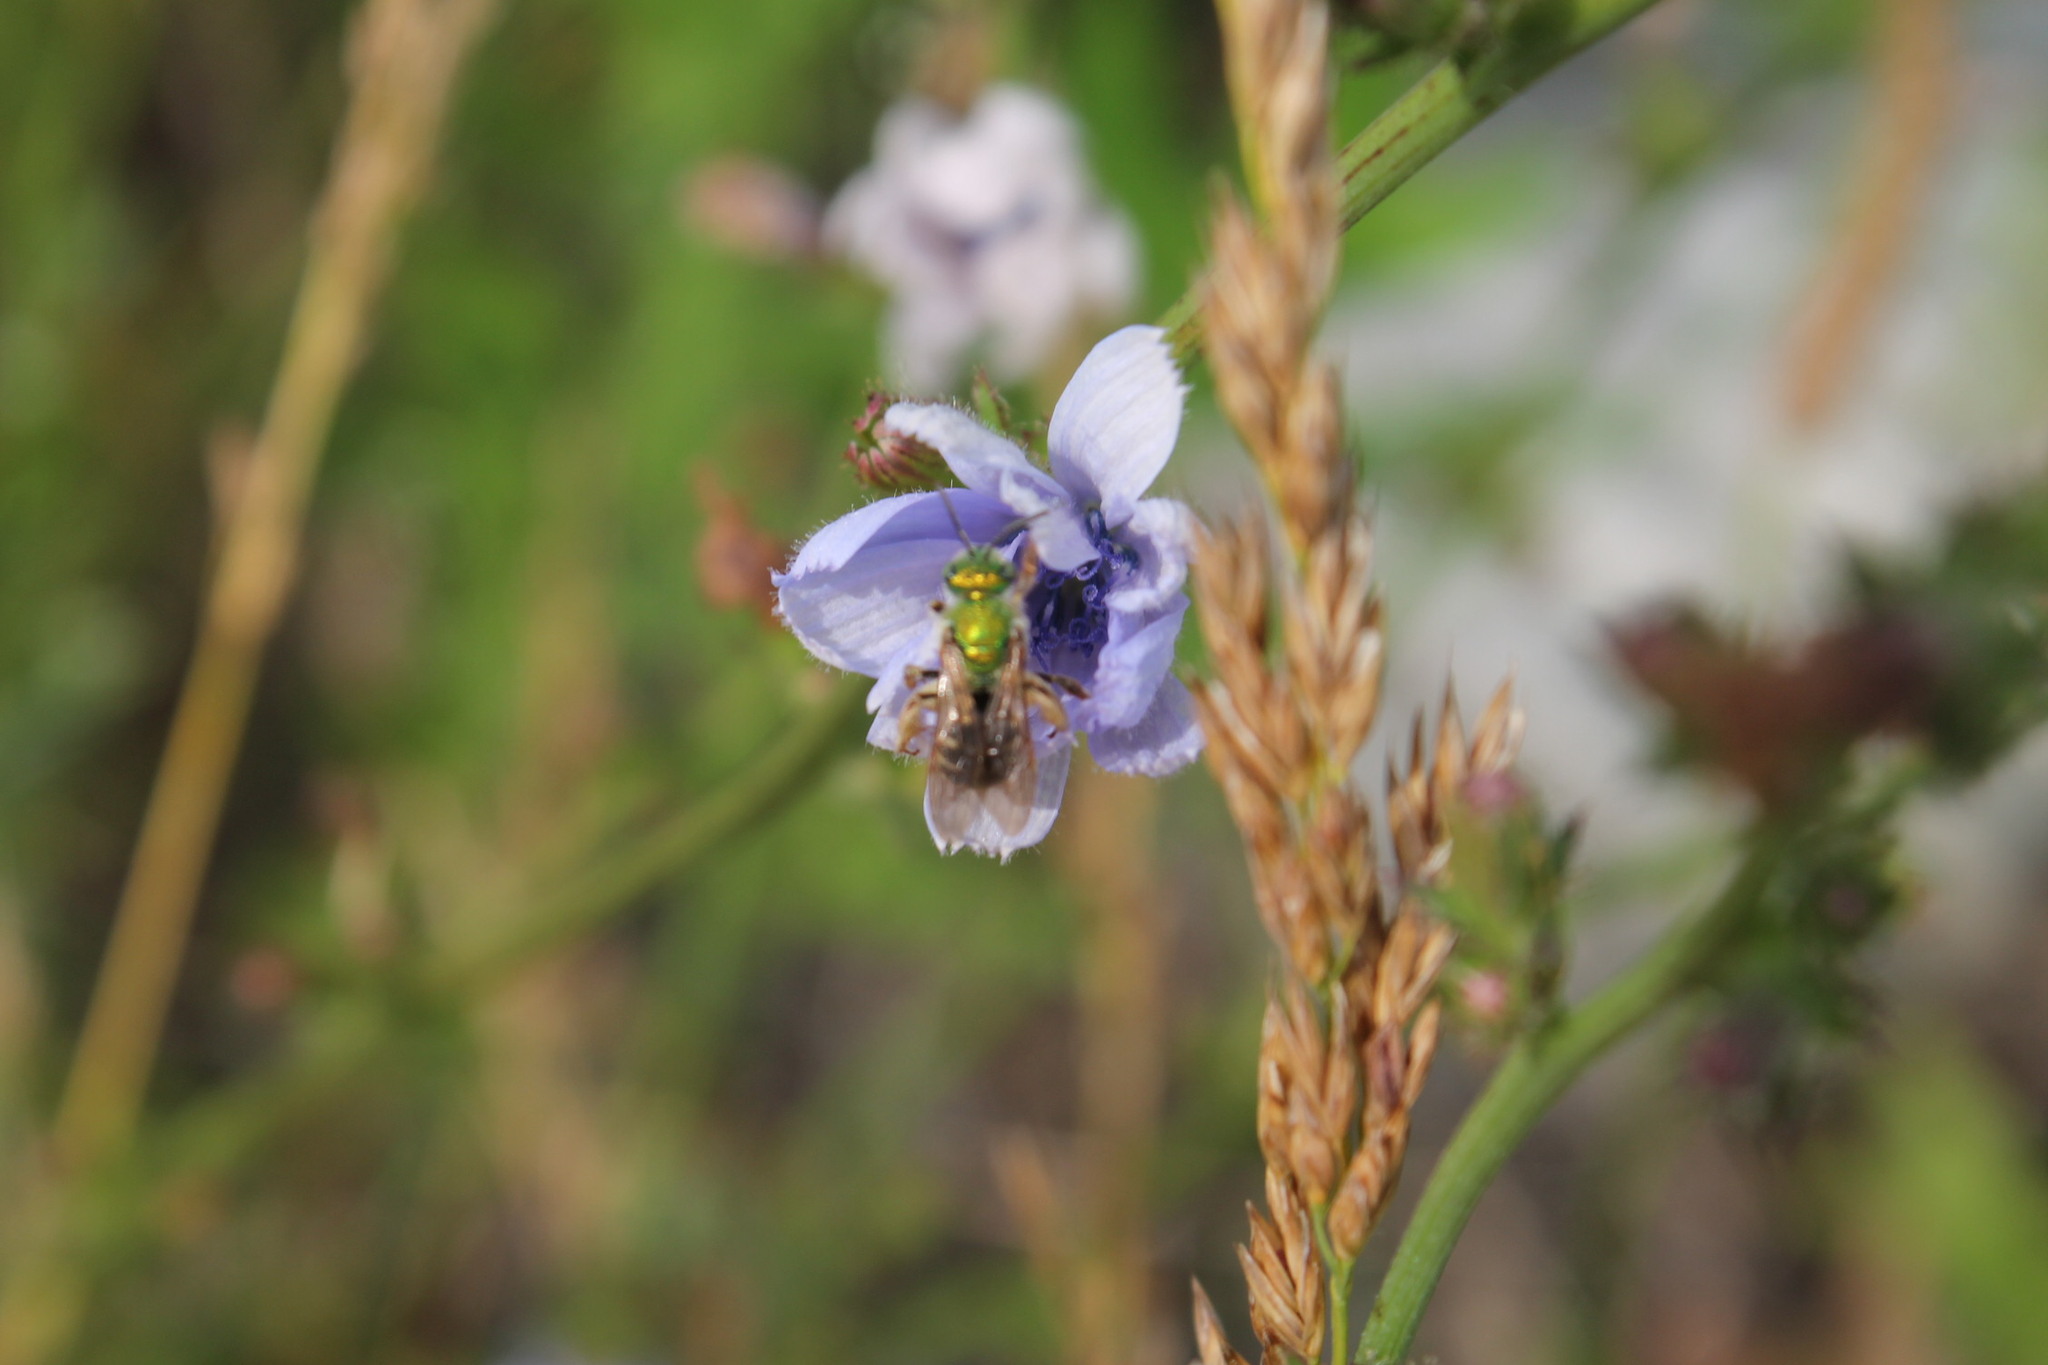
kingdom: Animalia
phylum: Arthropoda
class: Insecta
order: Hymenoptera
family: Halictidae
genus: Agapostemon
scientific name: Agapostemon virescens
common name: Bicolored striped sweat bee
